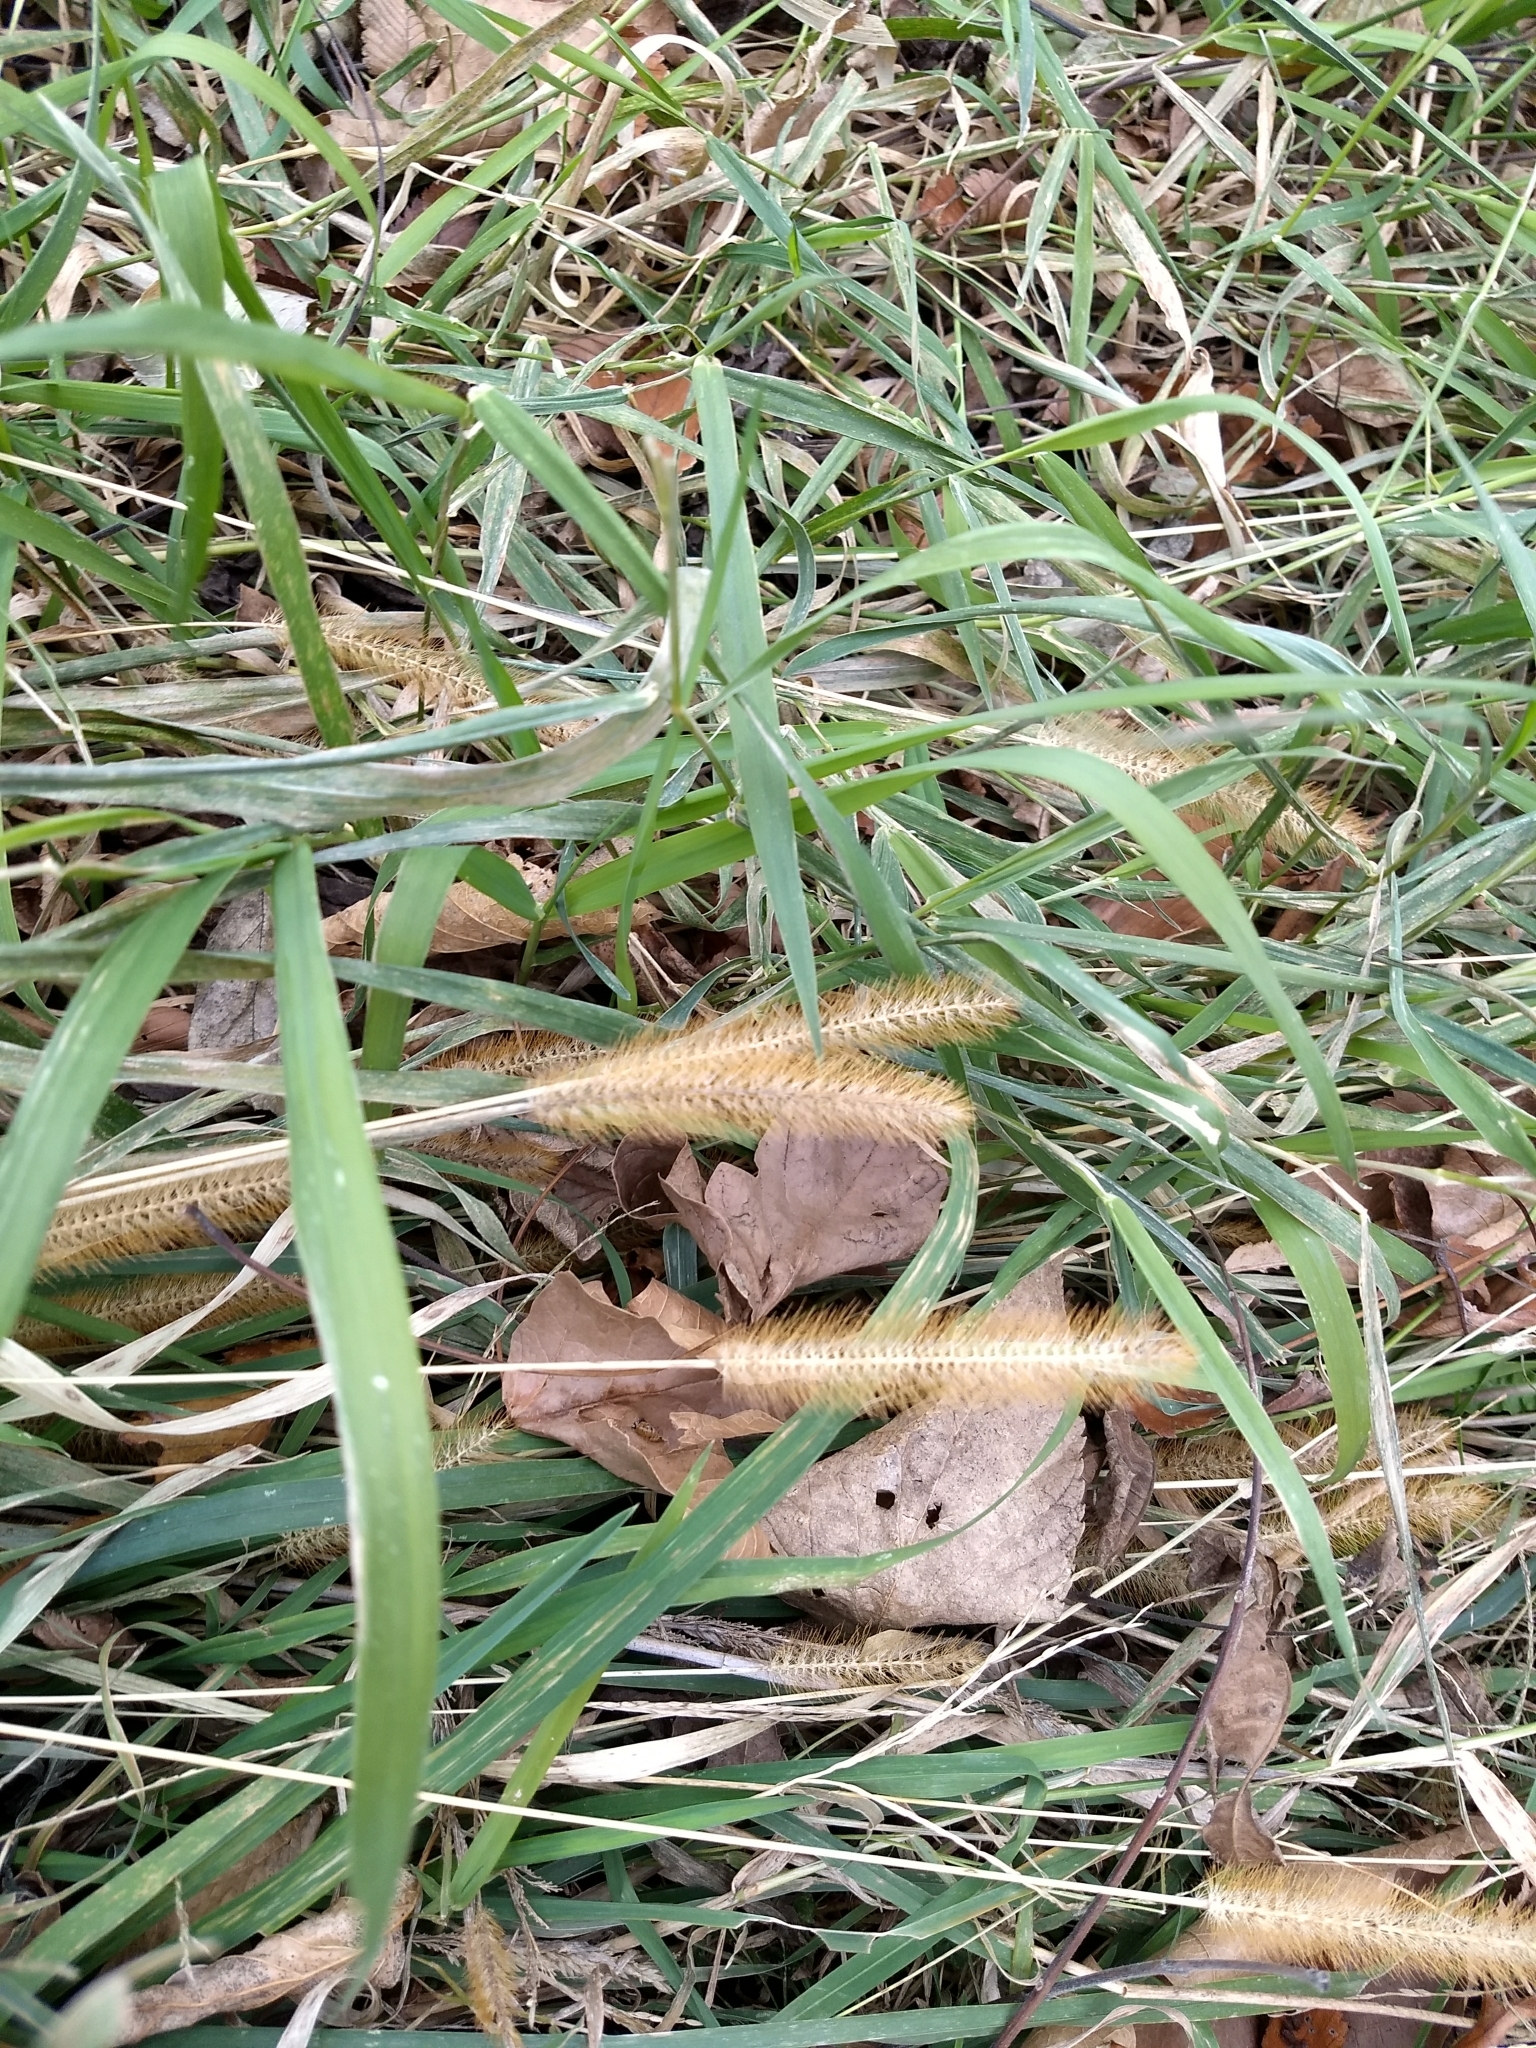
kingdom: Plantae
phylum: Tracheophyta
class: Liliopsida
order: Poales
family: Poaceae
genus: Setaria
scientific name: Setaria pumila
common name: Yellow bristle-grass
